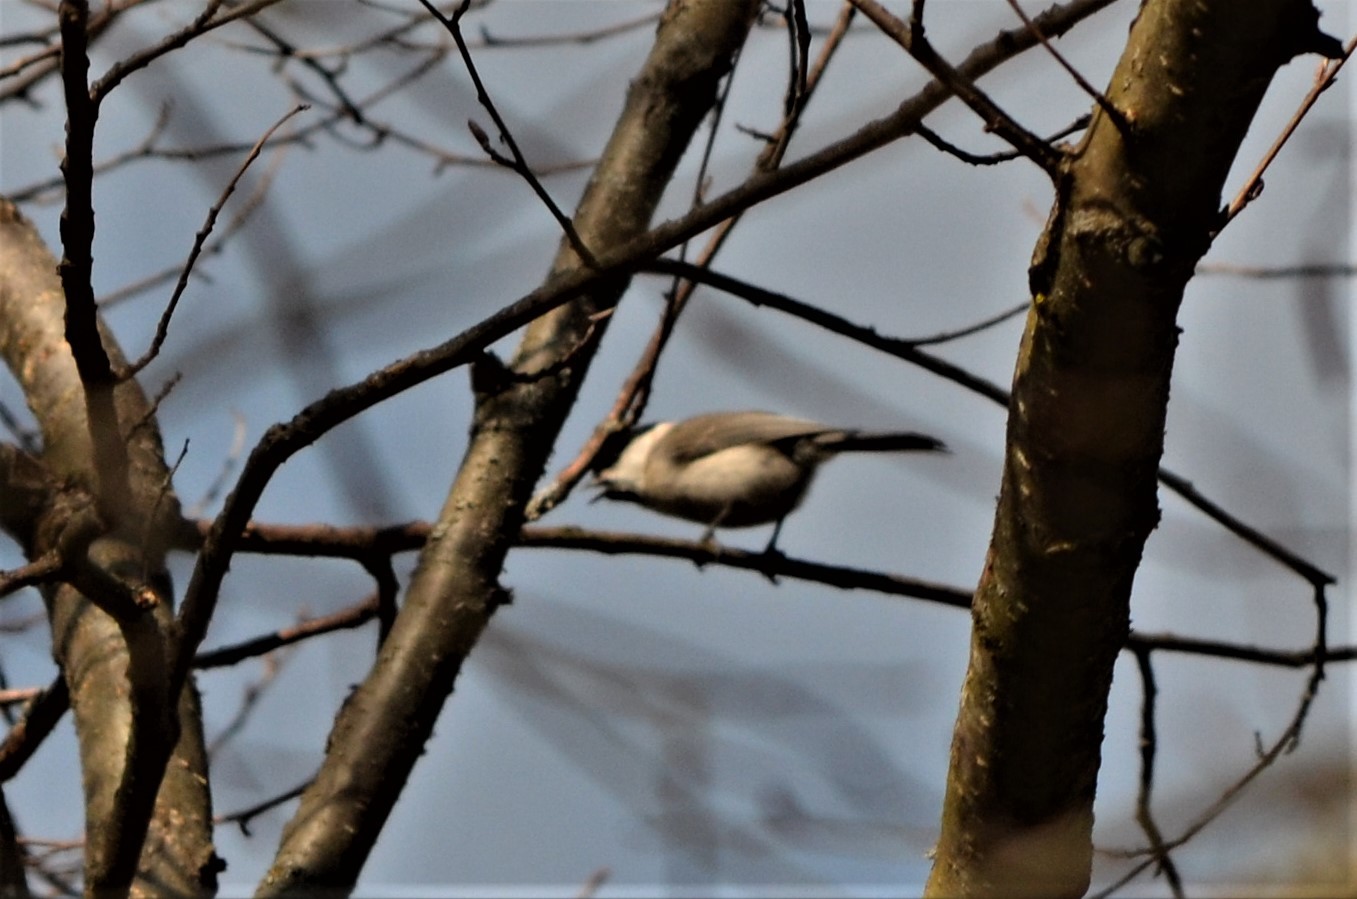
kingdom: Animalia
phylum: Chordata
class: Aves
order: Passeriformes
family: Paridae
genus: Poecile
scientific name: Poecile palustris
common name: Marsh tit
